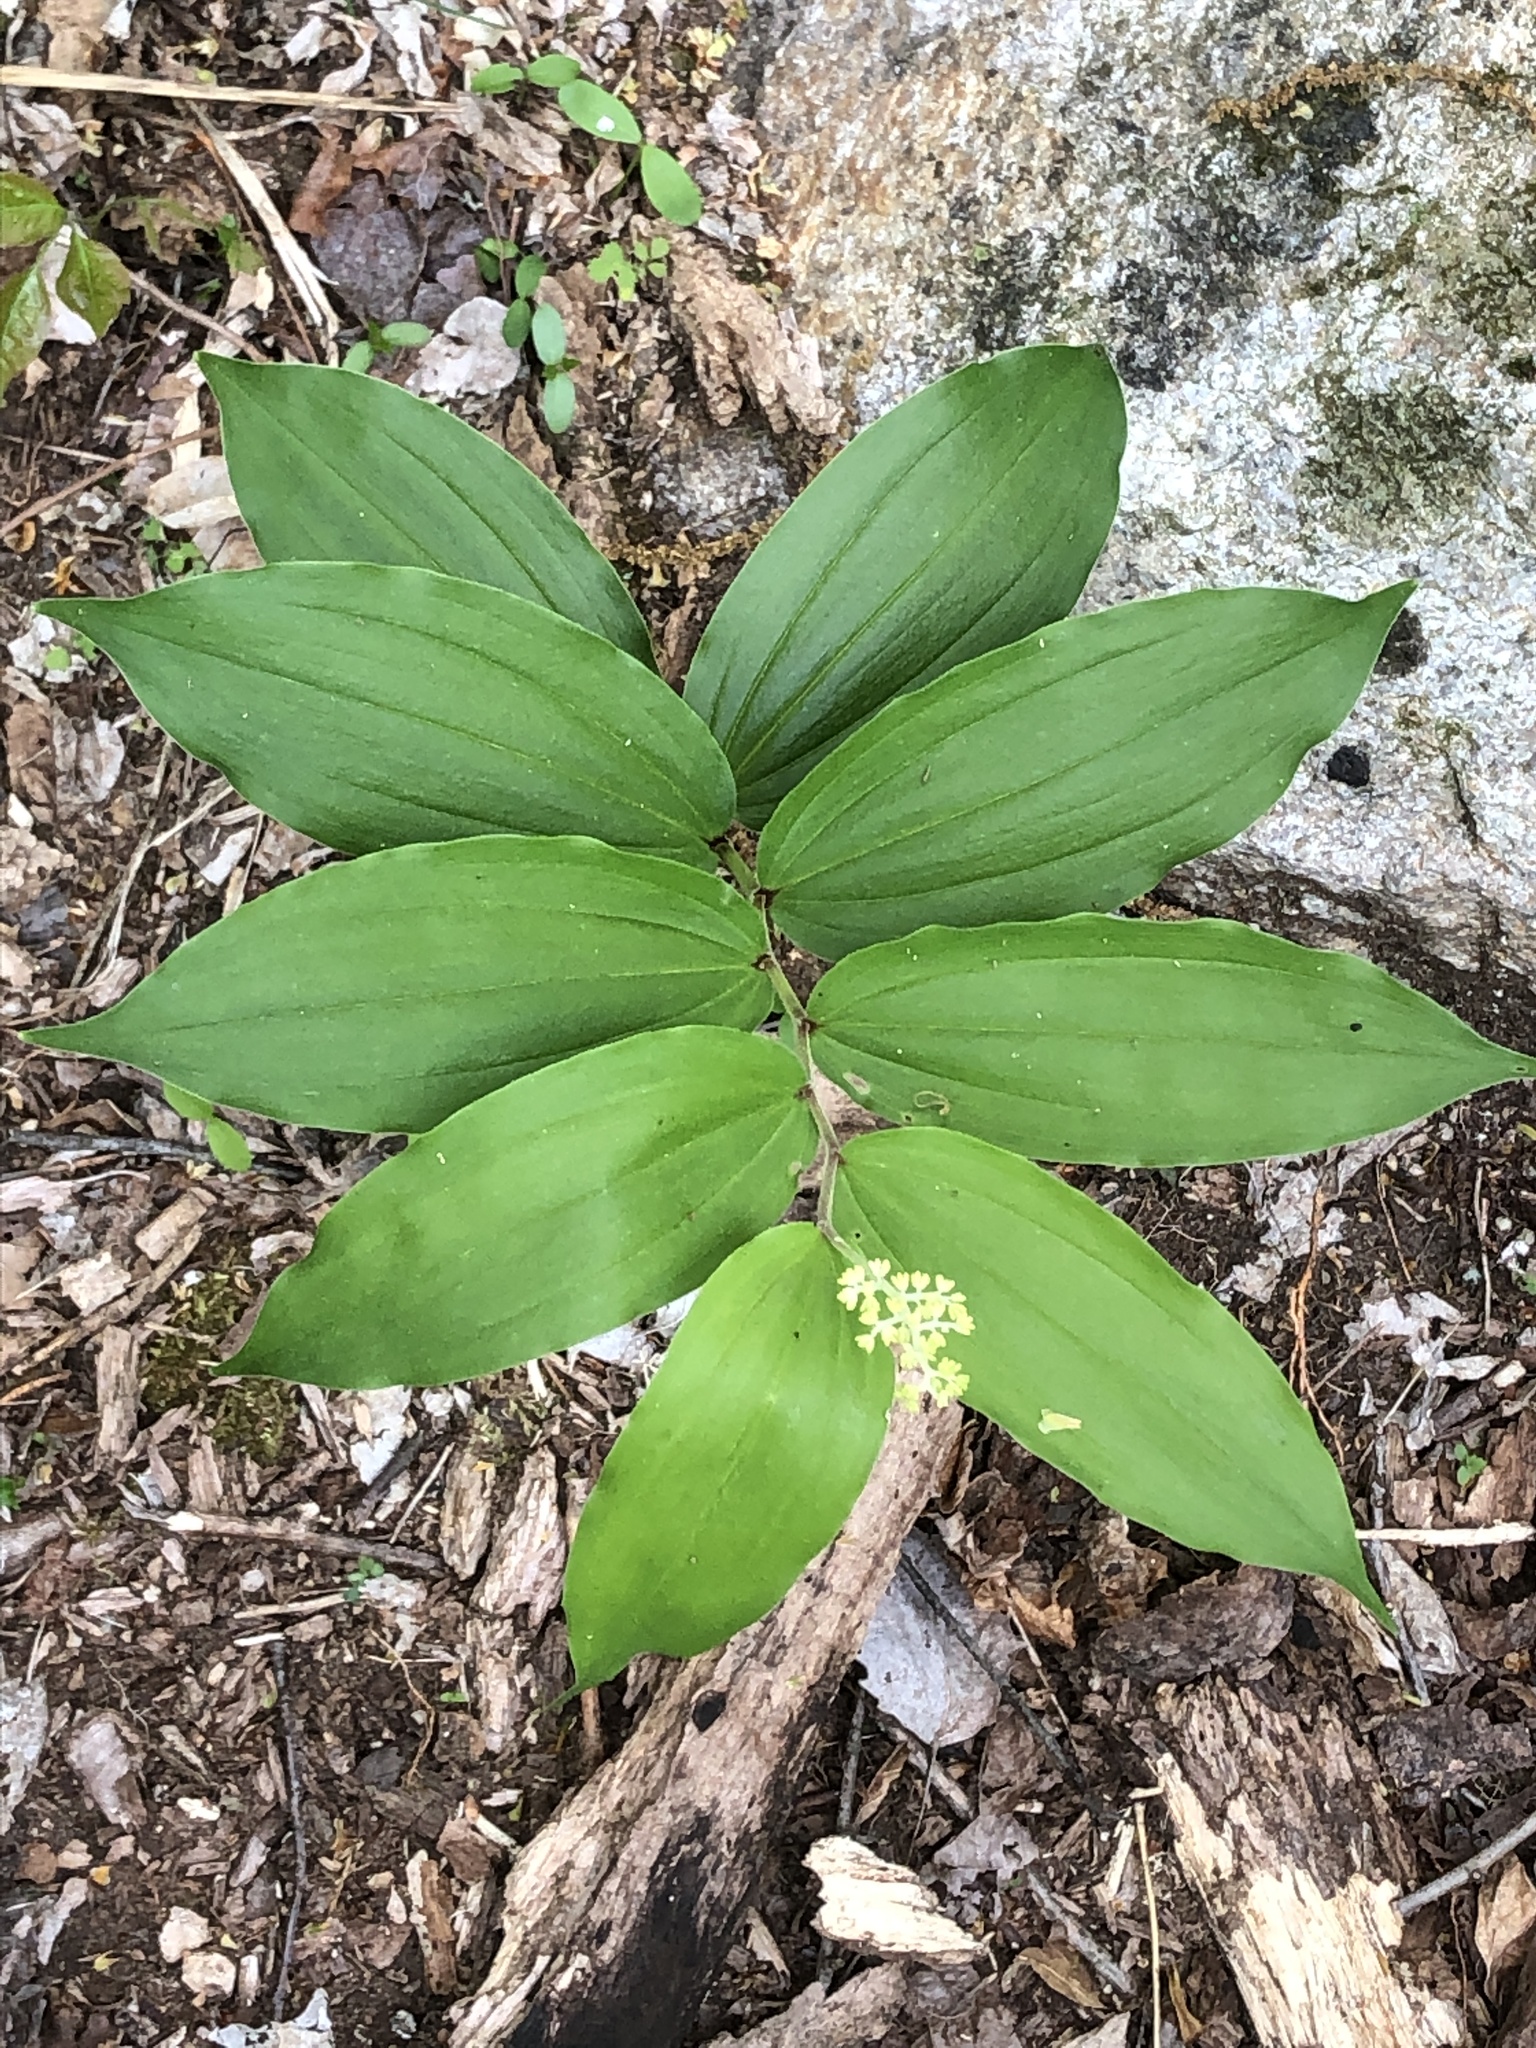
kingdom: Plantae
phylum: Tracheophyta
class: Liliopsida
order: Asparagales
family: Asparagaceae
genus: Maianthemum
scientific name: Maianthemum racemosum
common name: False spikenard
